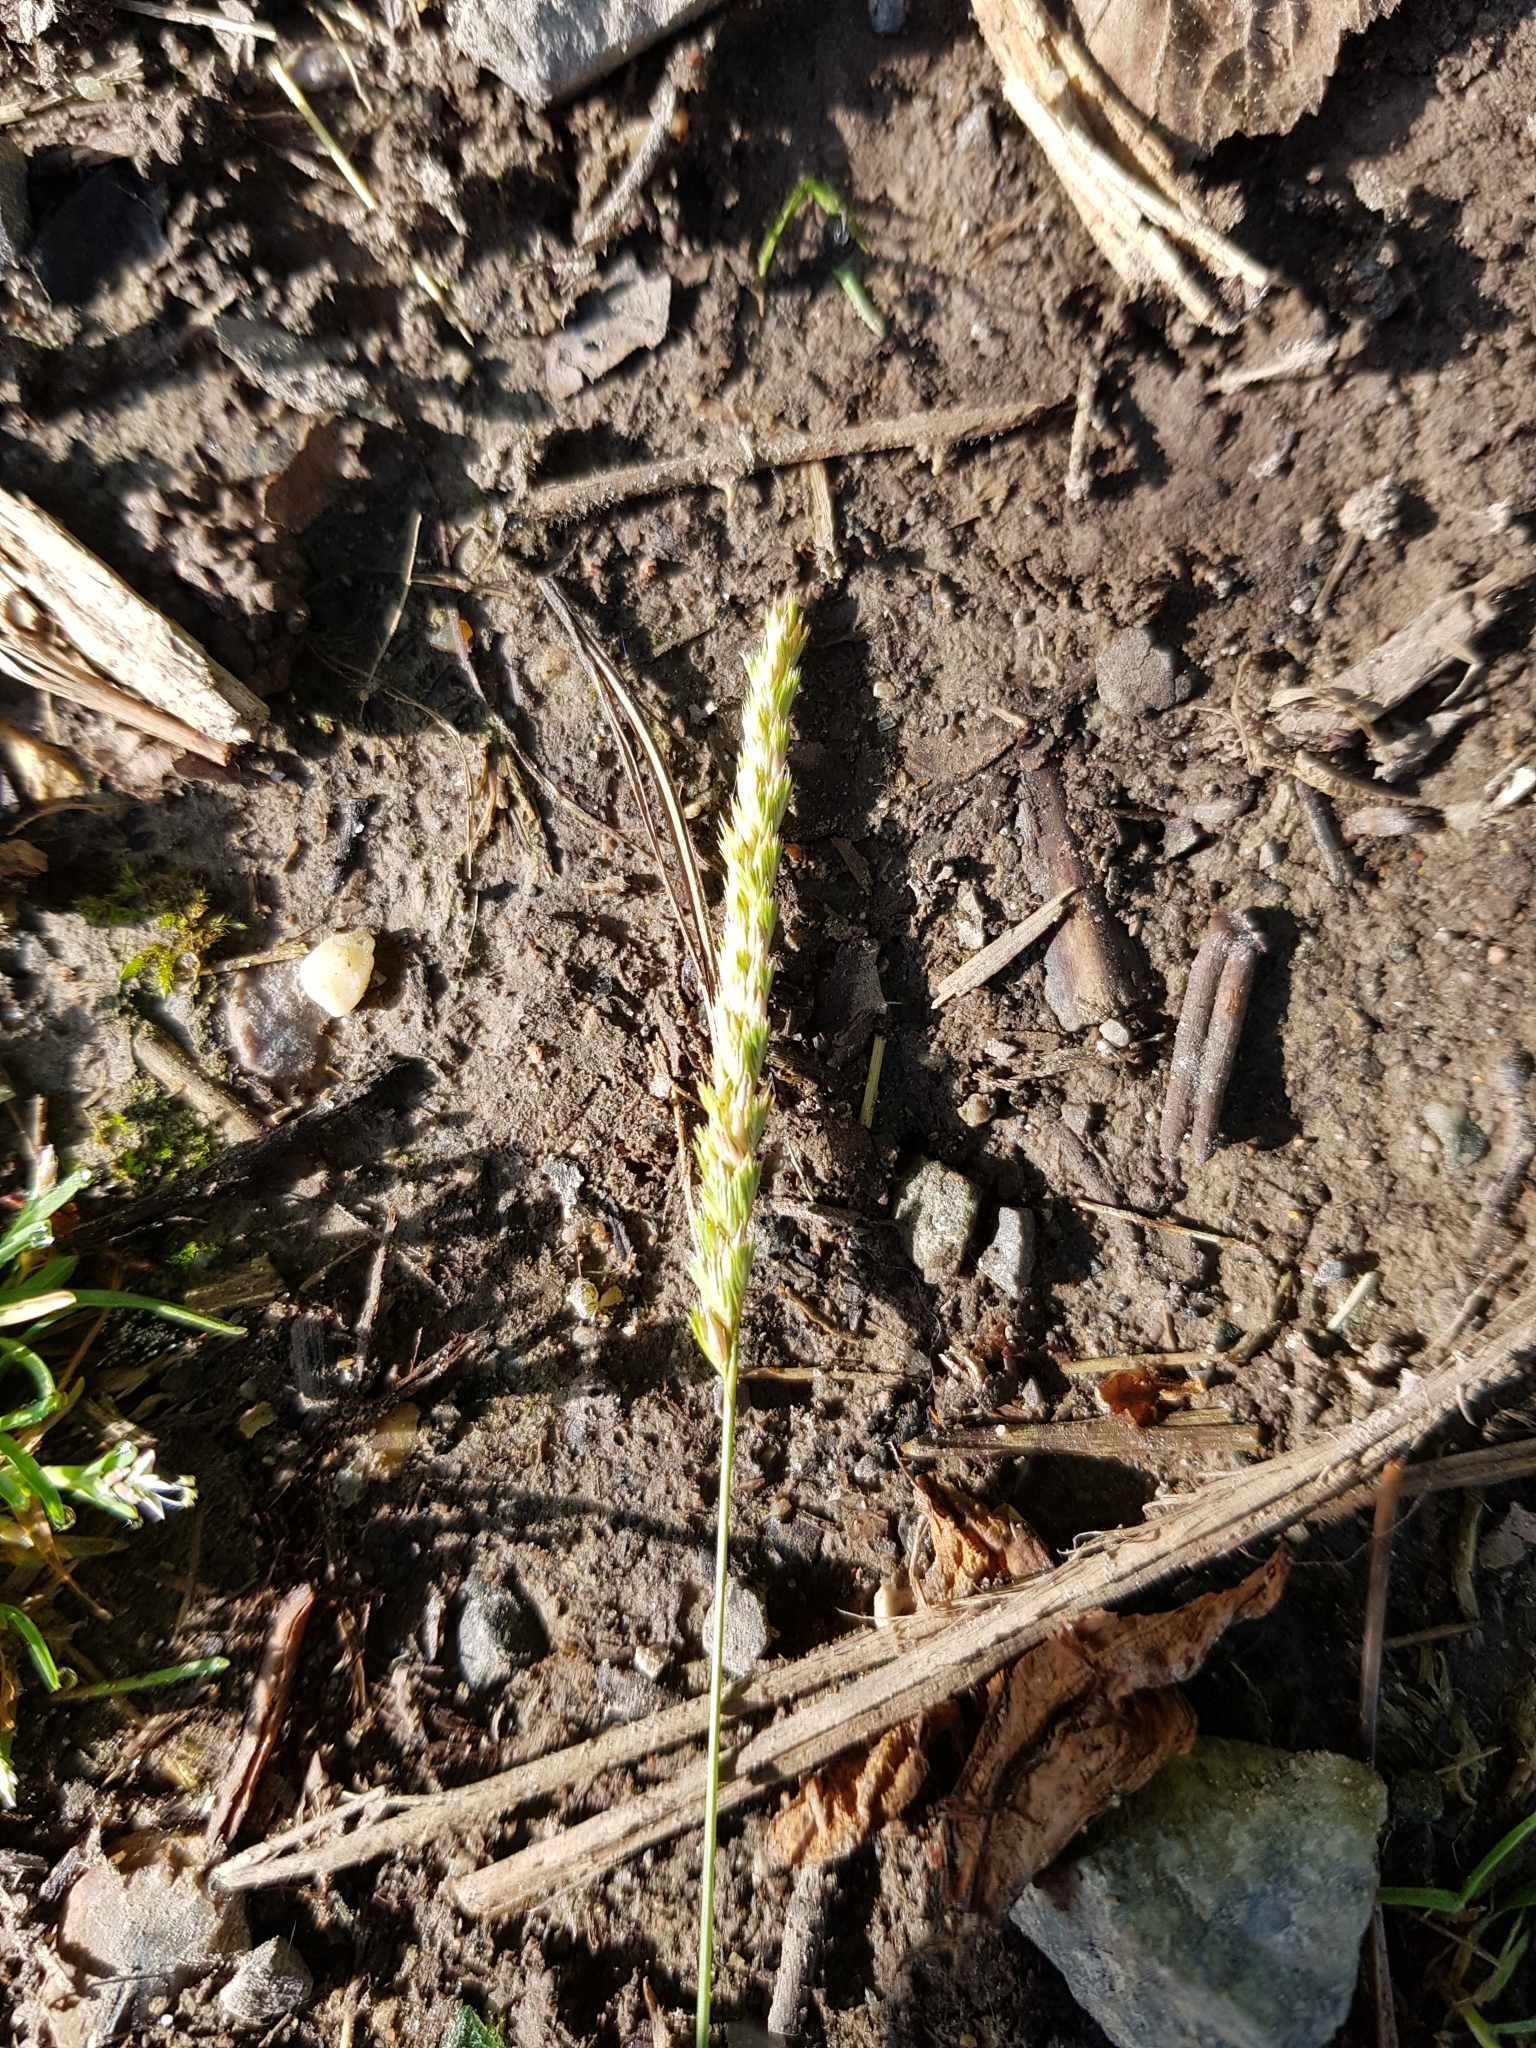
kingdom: Plantae
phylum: Tracheophyta
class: Liliopsida
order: Poales
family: Poaceae
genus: Cynosurus
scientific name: Cynosurus cristatus
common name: Crested dog's-tail
